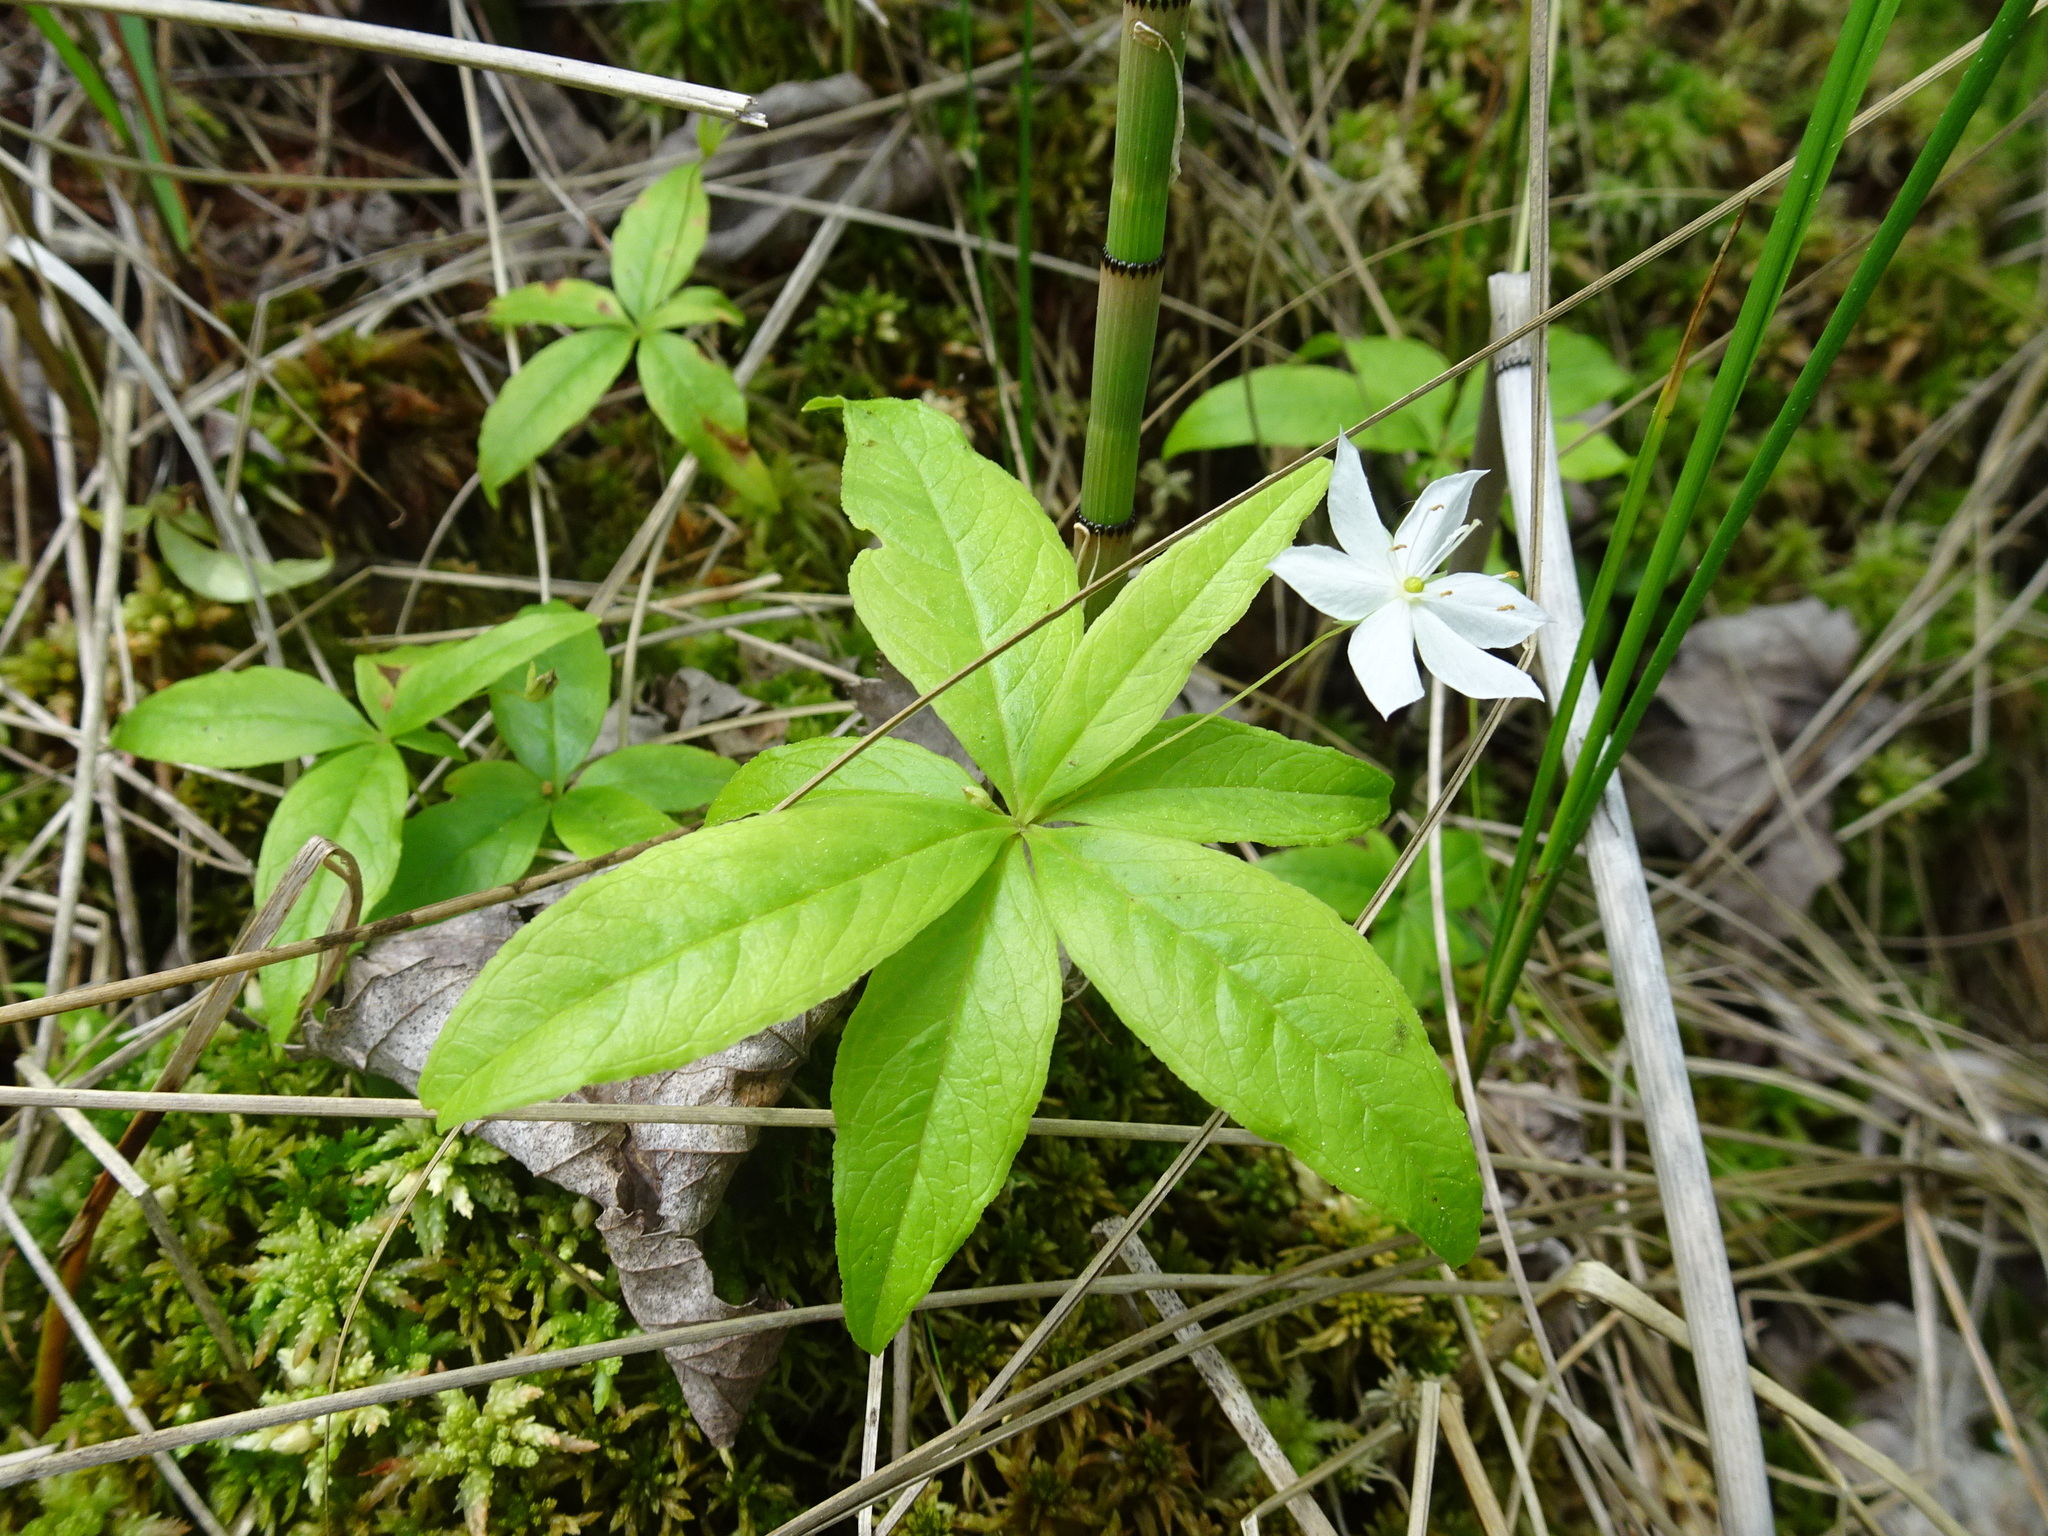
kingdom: Plantae
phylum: Tracheophyta
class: Magnoliopsida
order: Ericales
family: Primulaceae
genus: Lysimachia
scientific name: Lysimachia borealis
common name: American starflower
